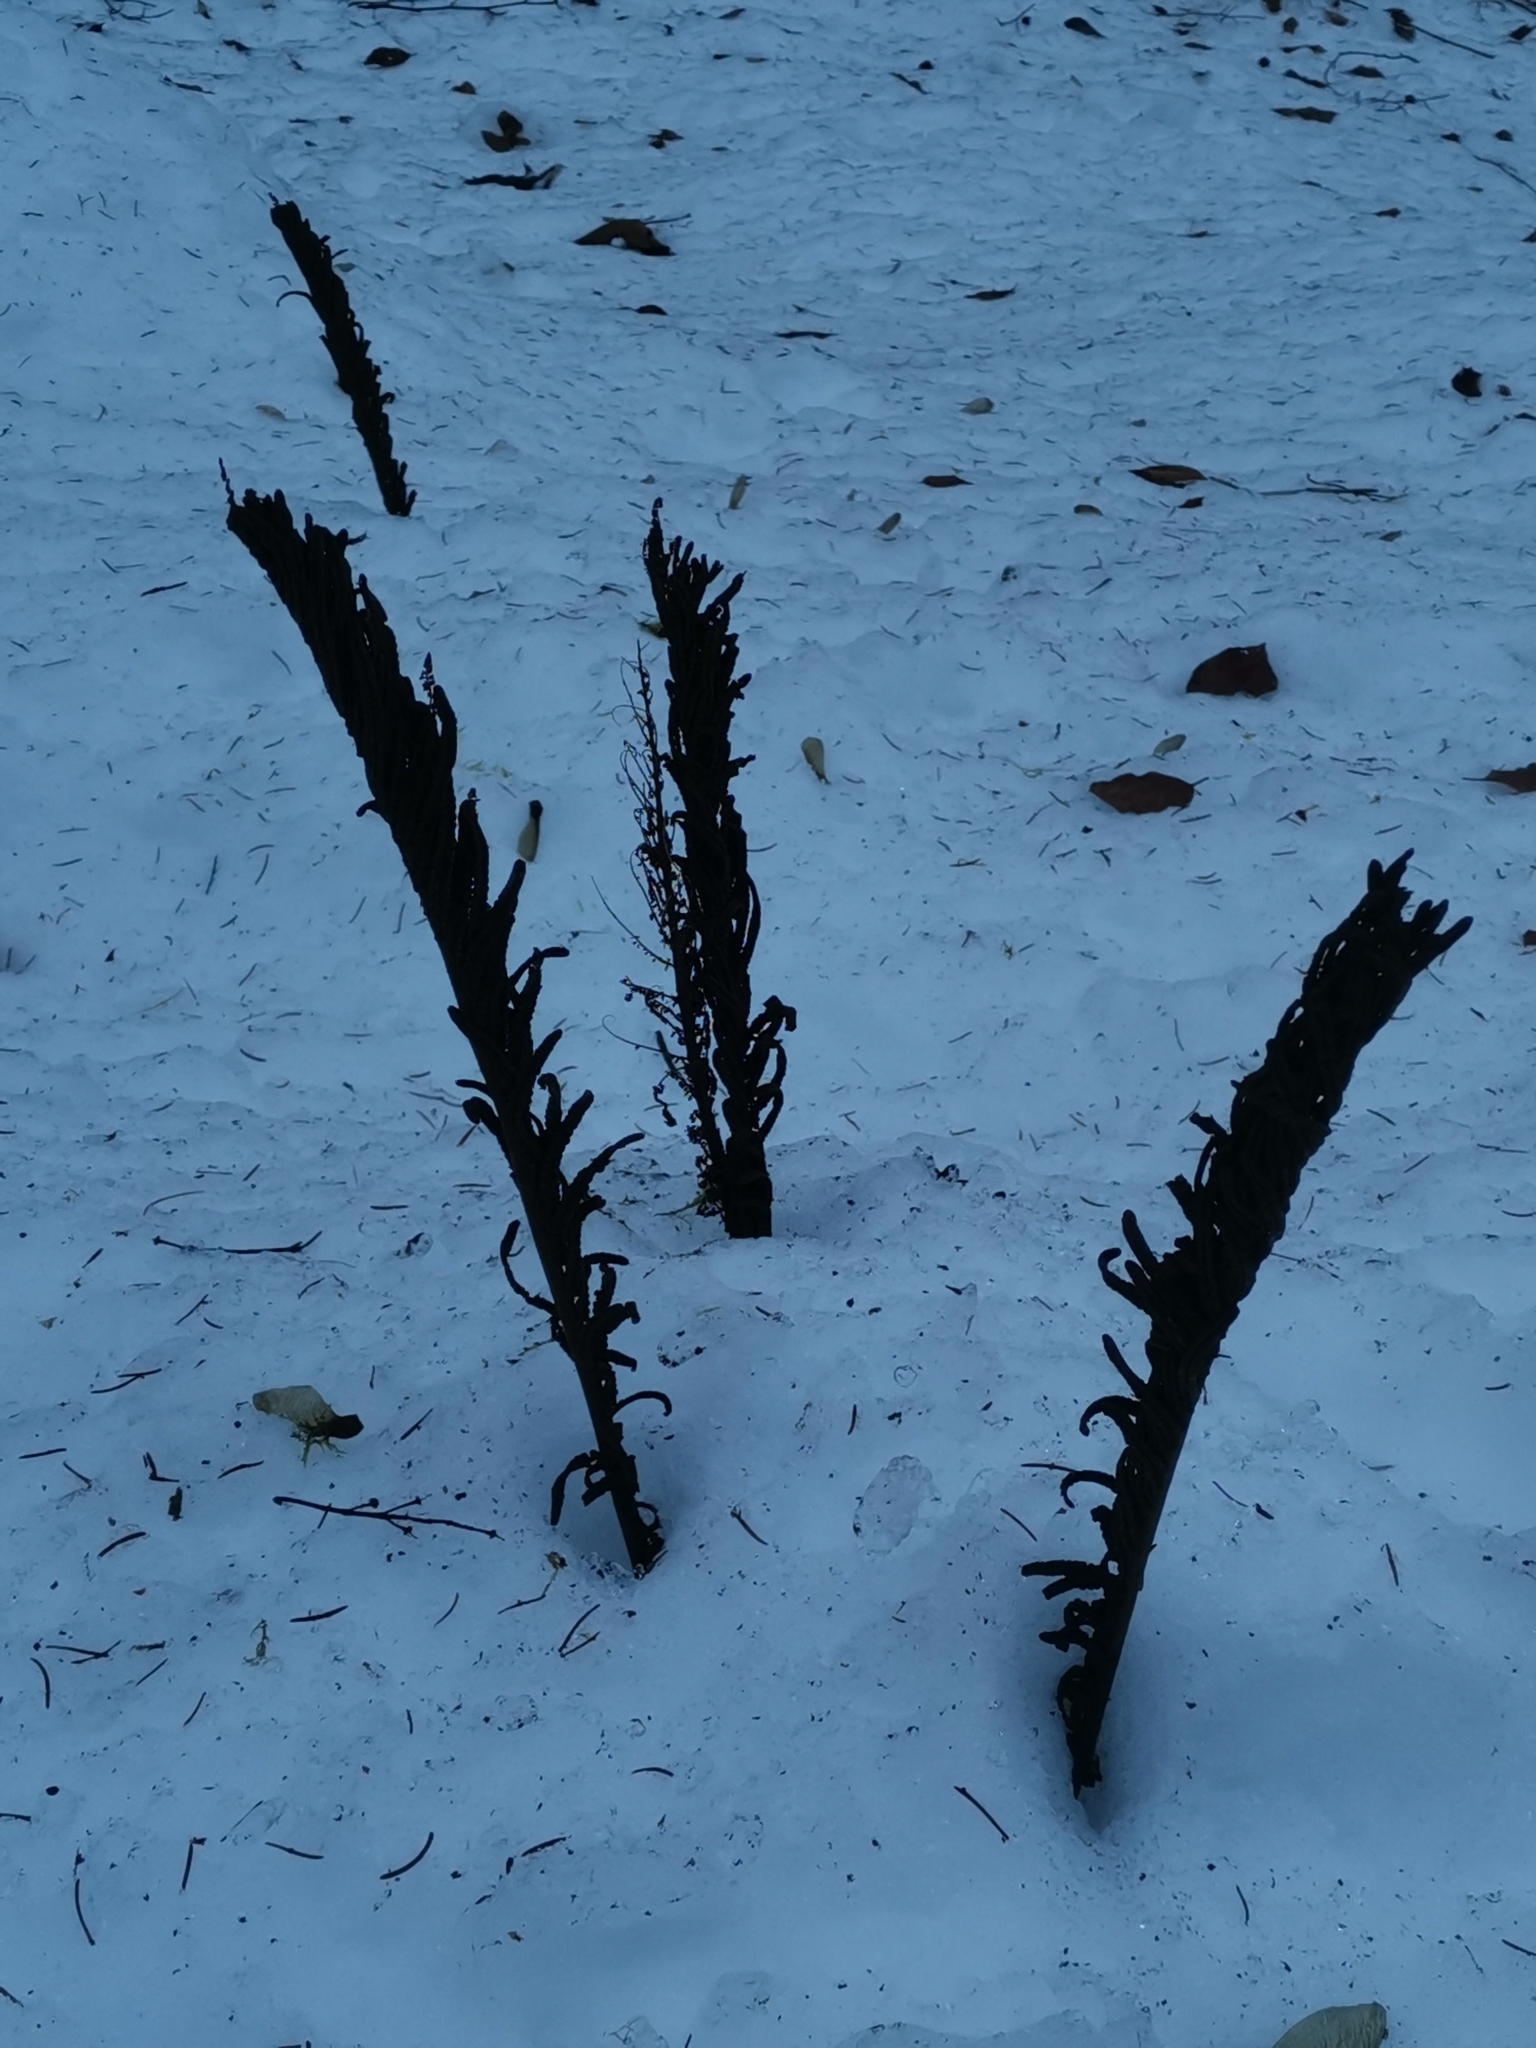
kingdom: Plantae
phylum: Tracheophyta
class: Polypodiopsida
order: Polypodiales
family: Onocleaceae
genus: Matteuccia
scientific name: Matteuccia struthiopteris
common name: Ostrich fern
